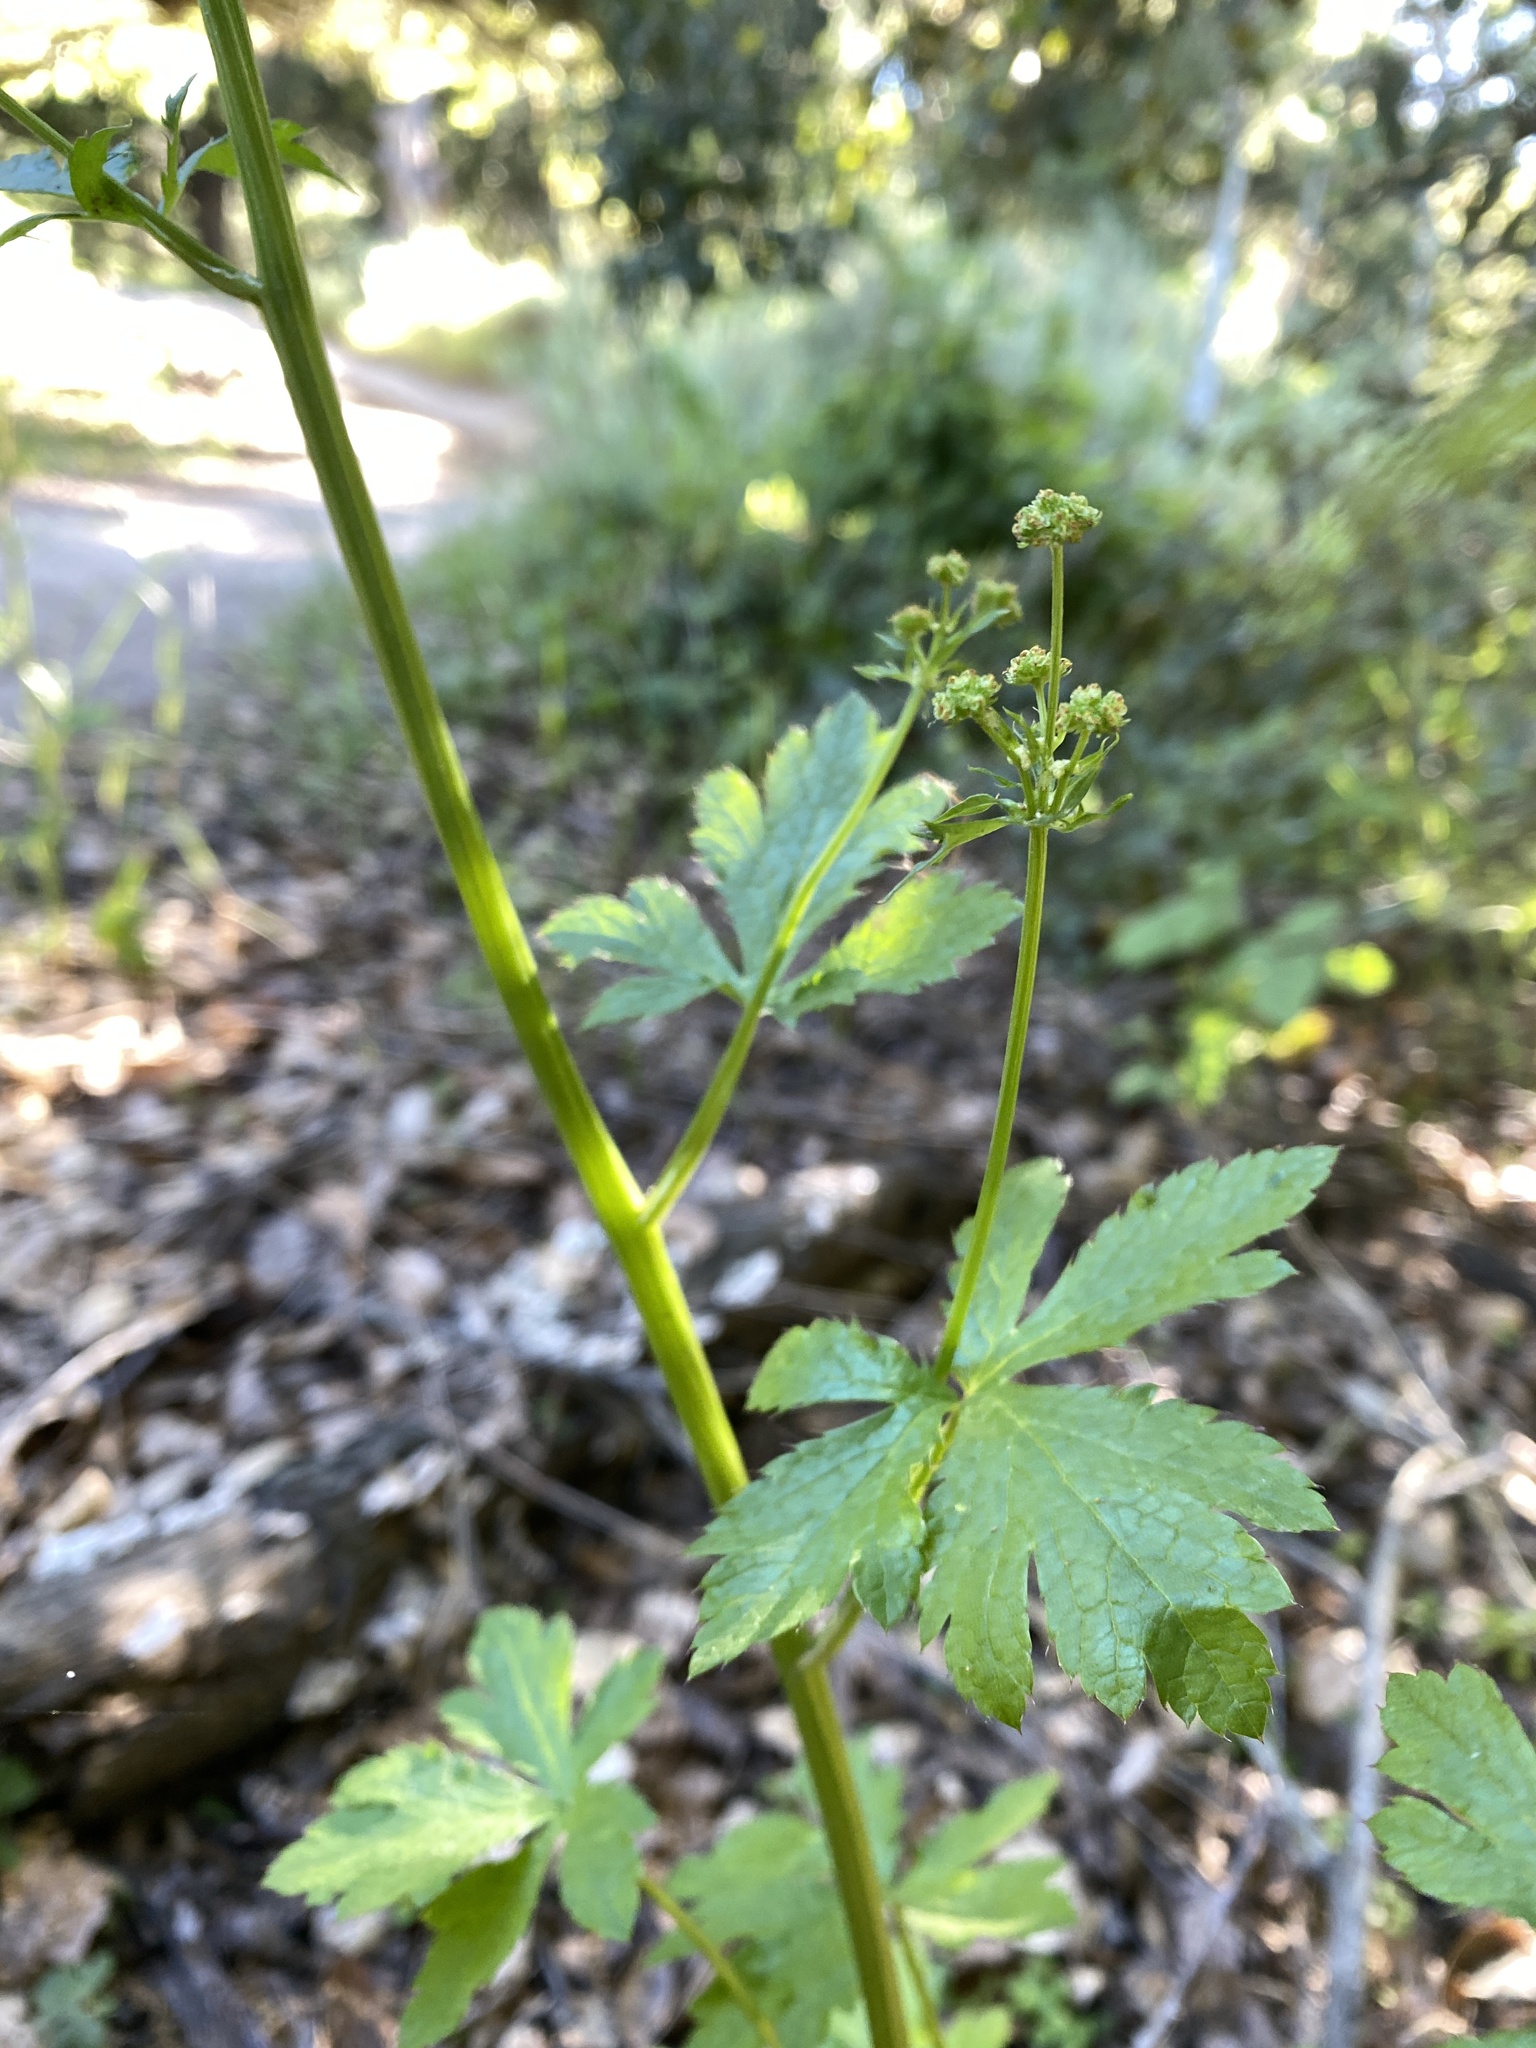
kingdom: Plantae
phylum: Tracheophyta
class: Magnoliopsida
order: Apiales
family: Apiaceae
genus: Sanicula
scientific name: Sanicula crassicaulis
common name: Western snakeroot
